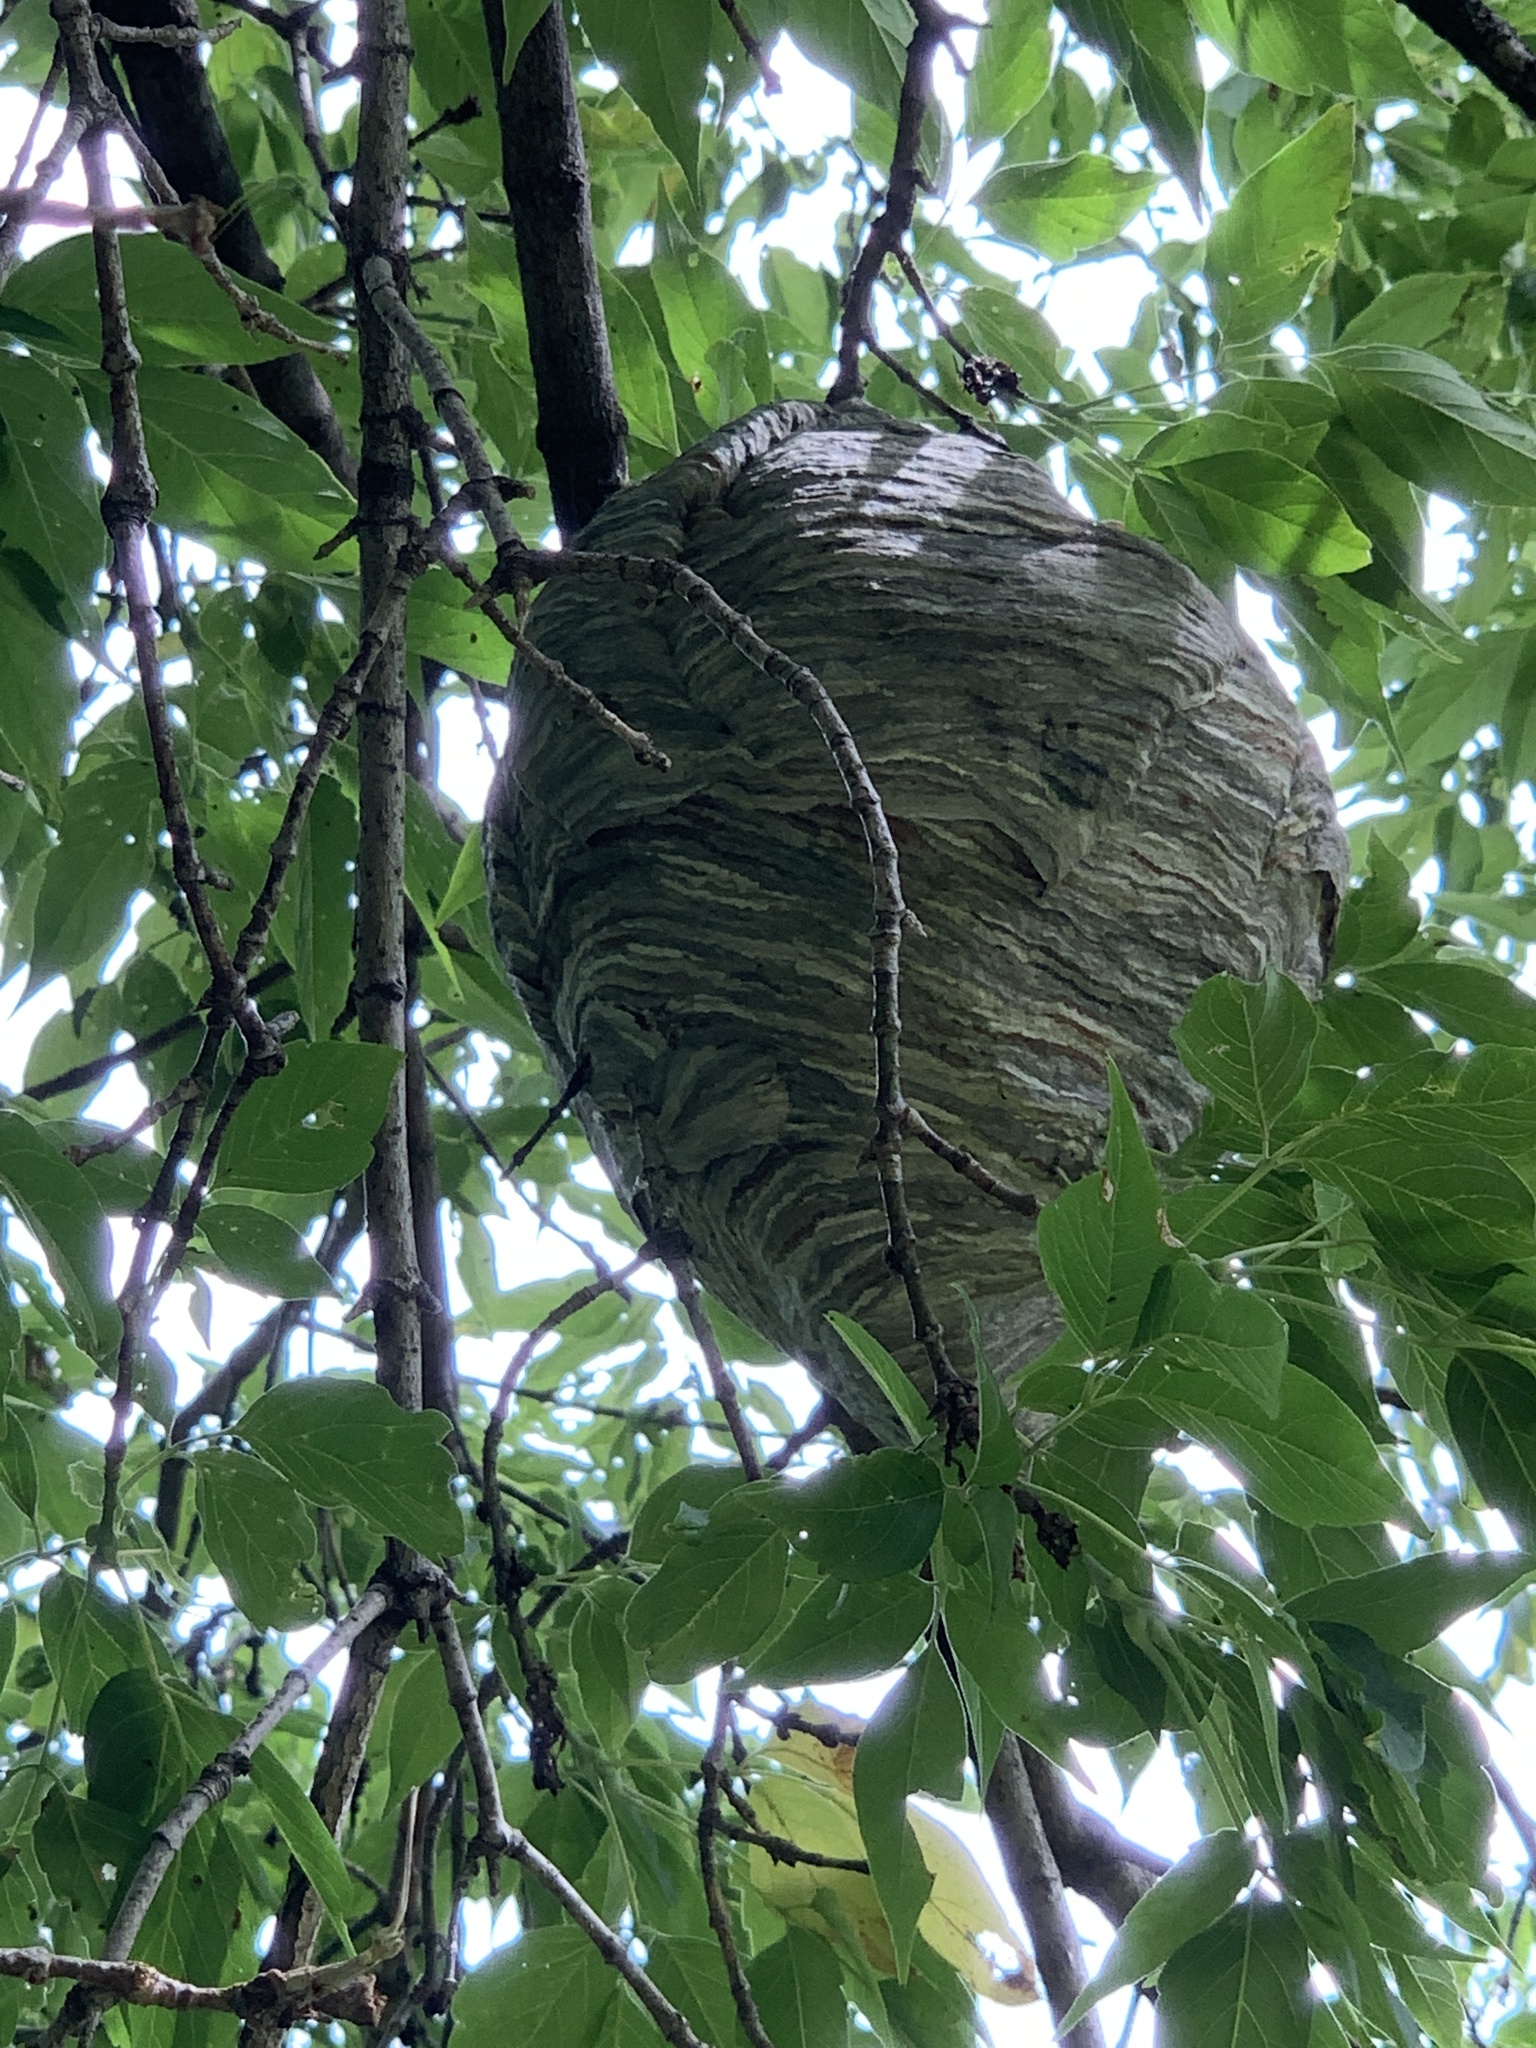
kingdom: Animalia
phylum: Arthropoda
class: Insecta
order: Hymenoptera
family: Vespidae
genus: Dolichovespula
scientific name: Dolichovespula
